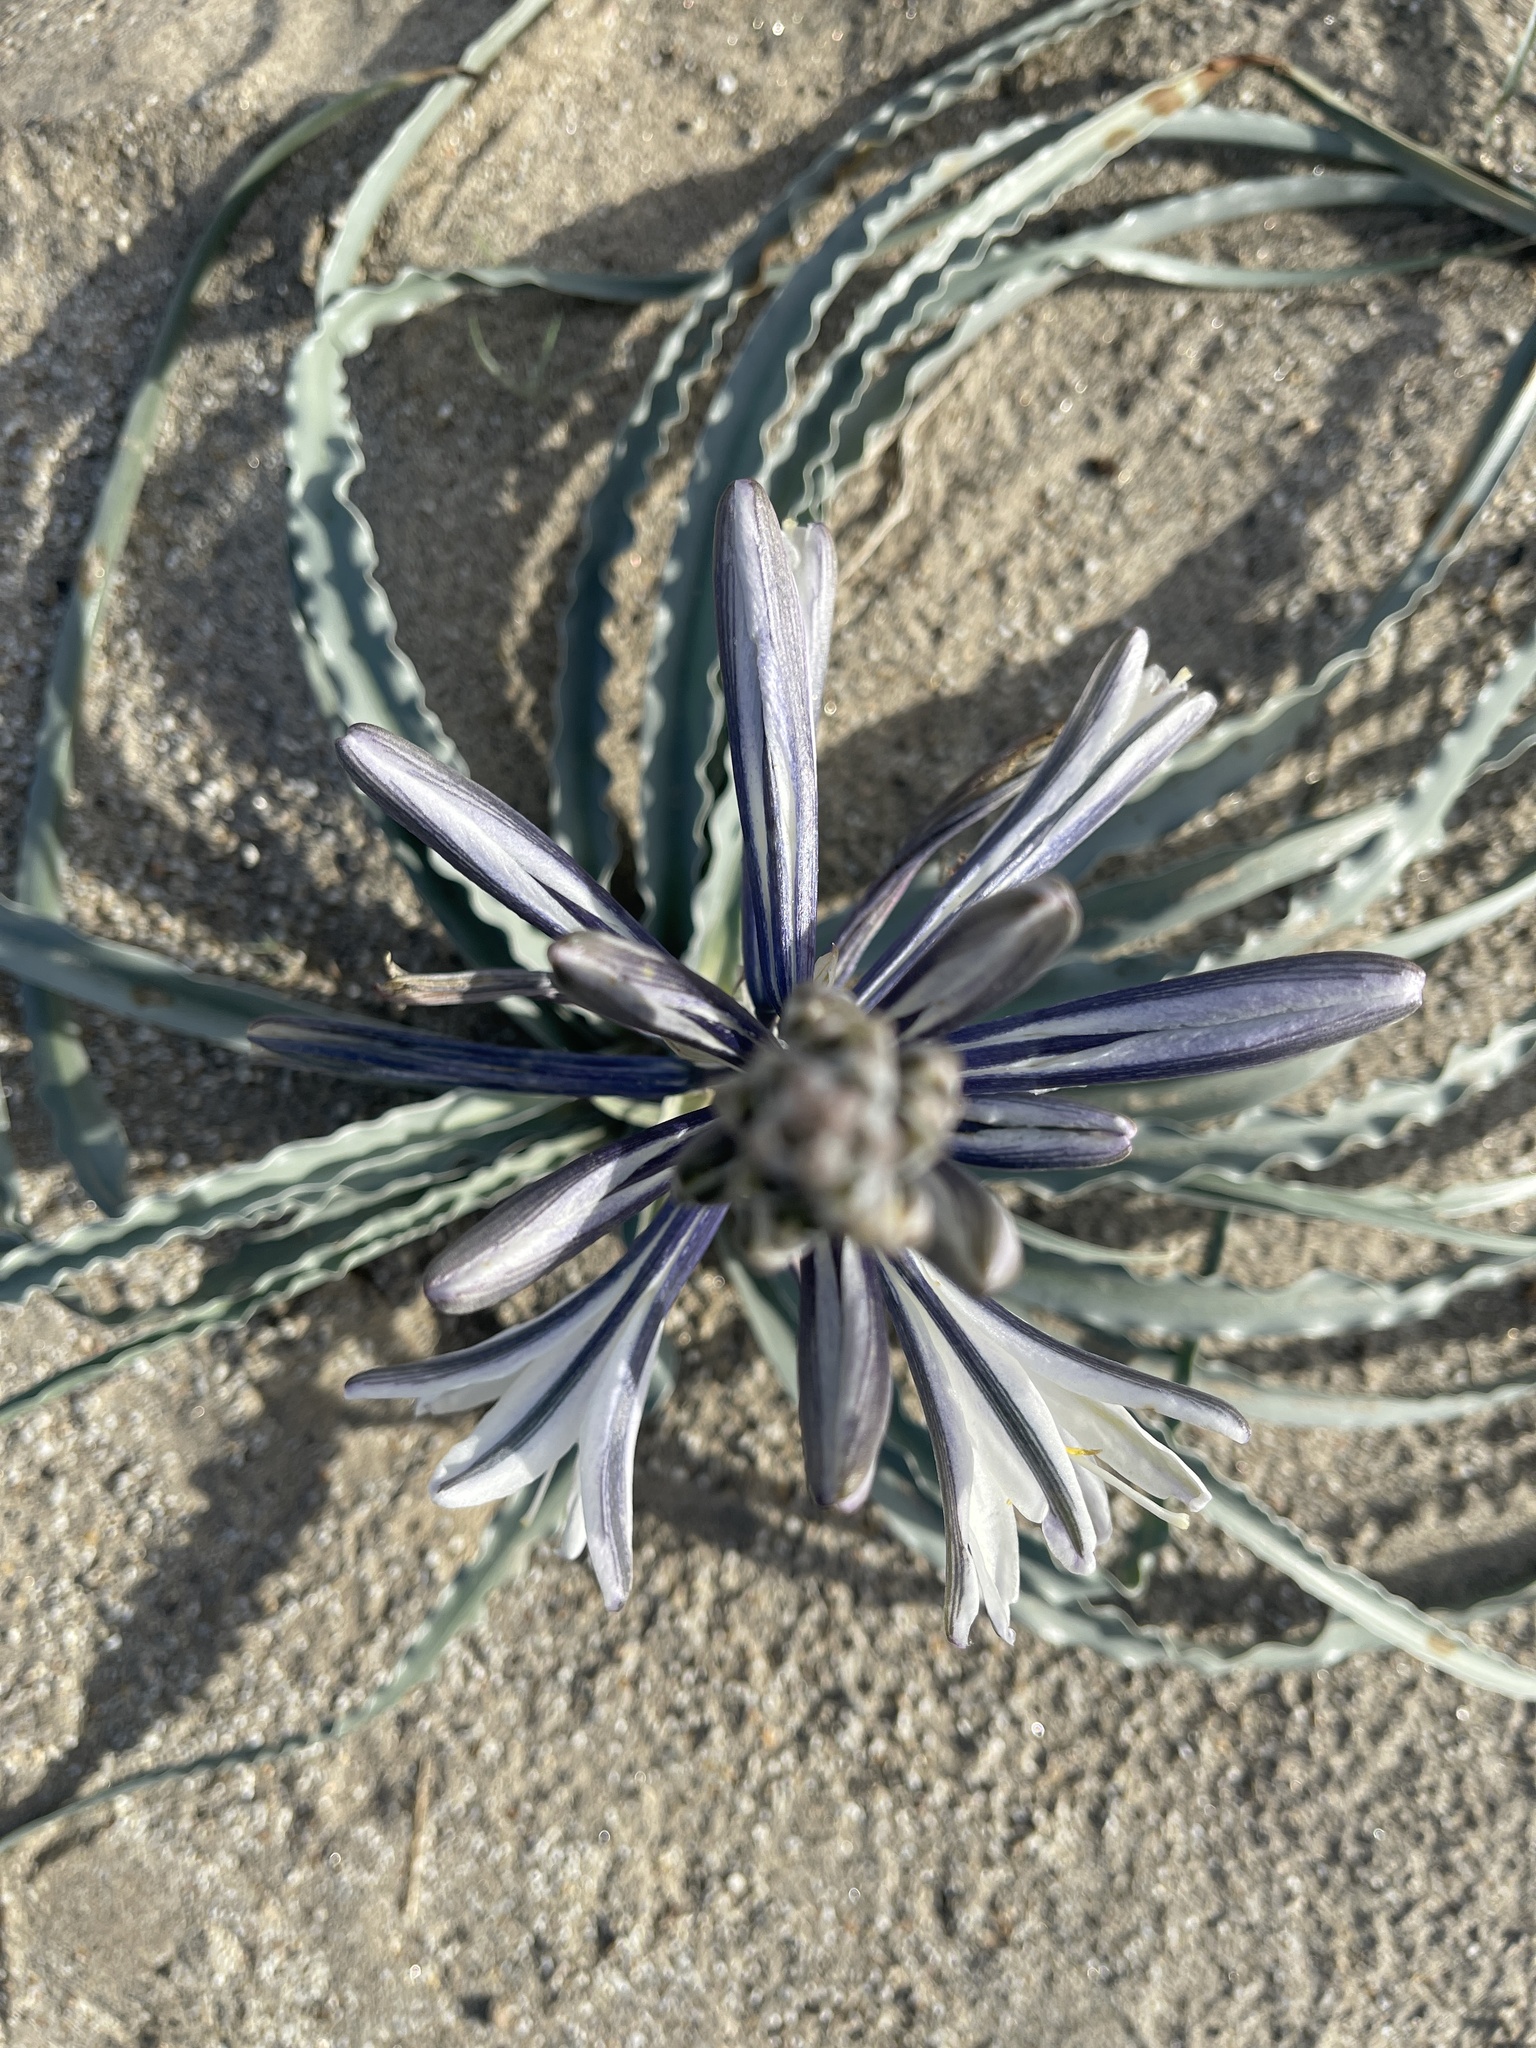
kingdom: Plantae
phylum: Tracheophyta
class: Liliopsida
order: Asparagales
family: Asparagaceae
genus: Hesperocallis
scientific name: Hesperocallis undulata
